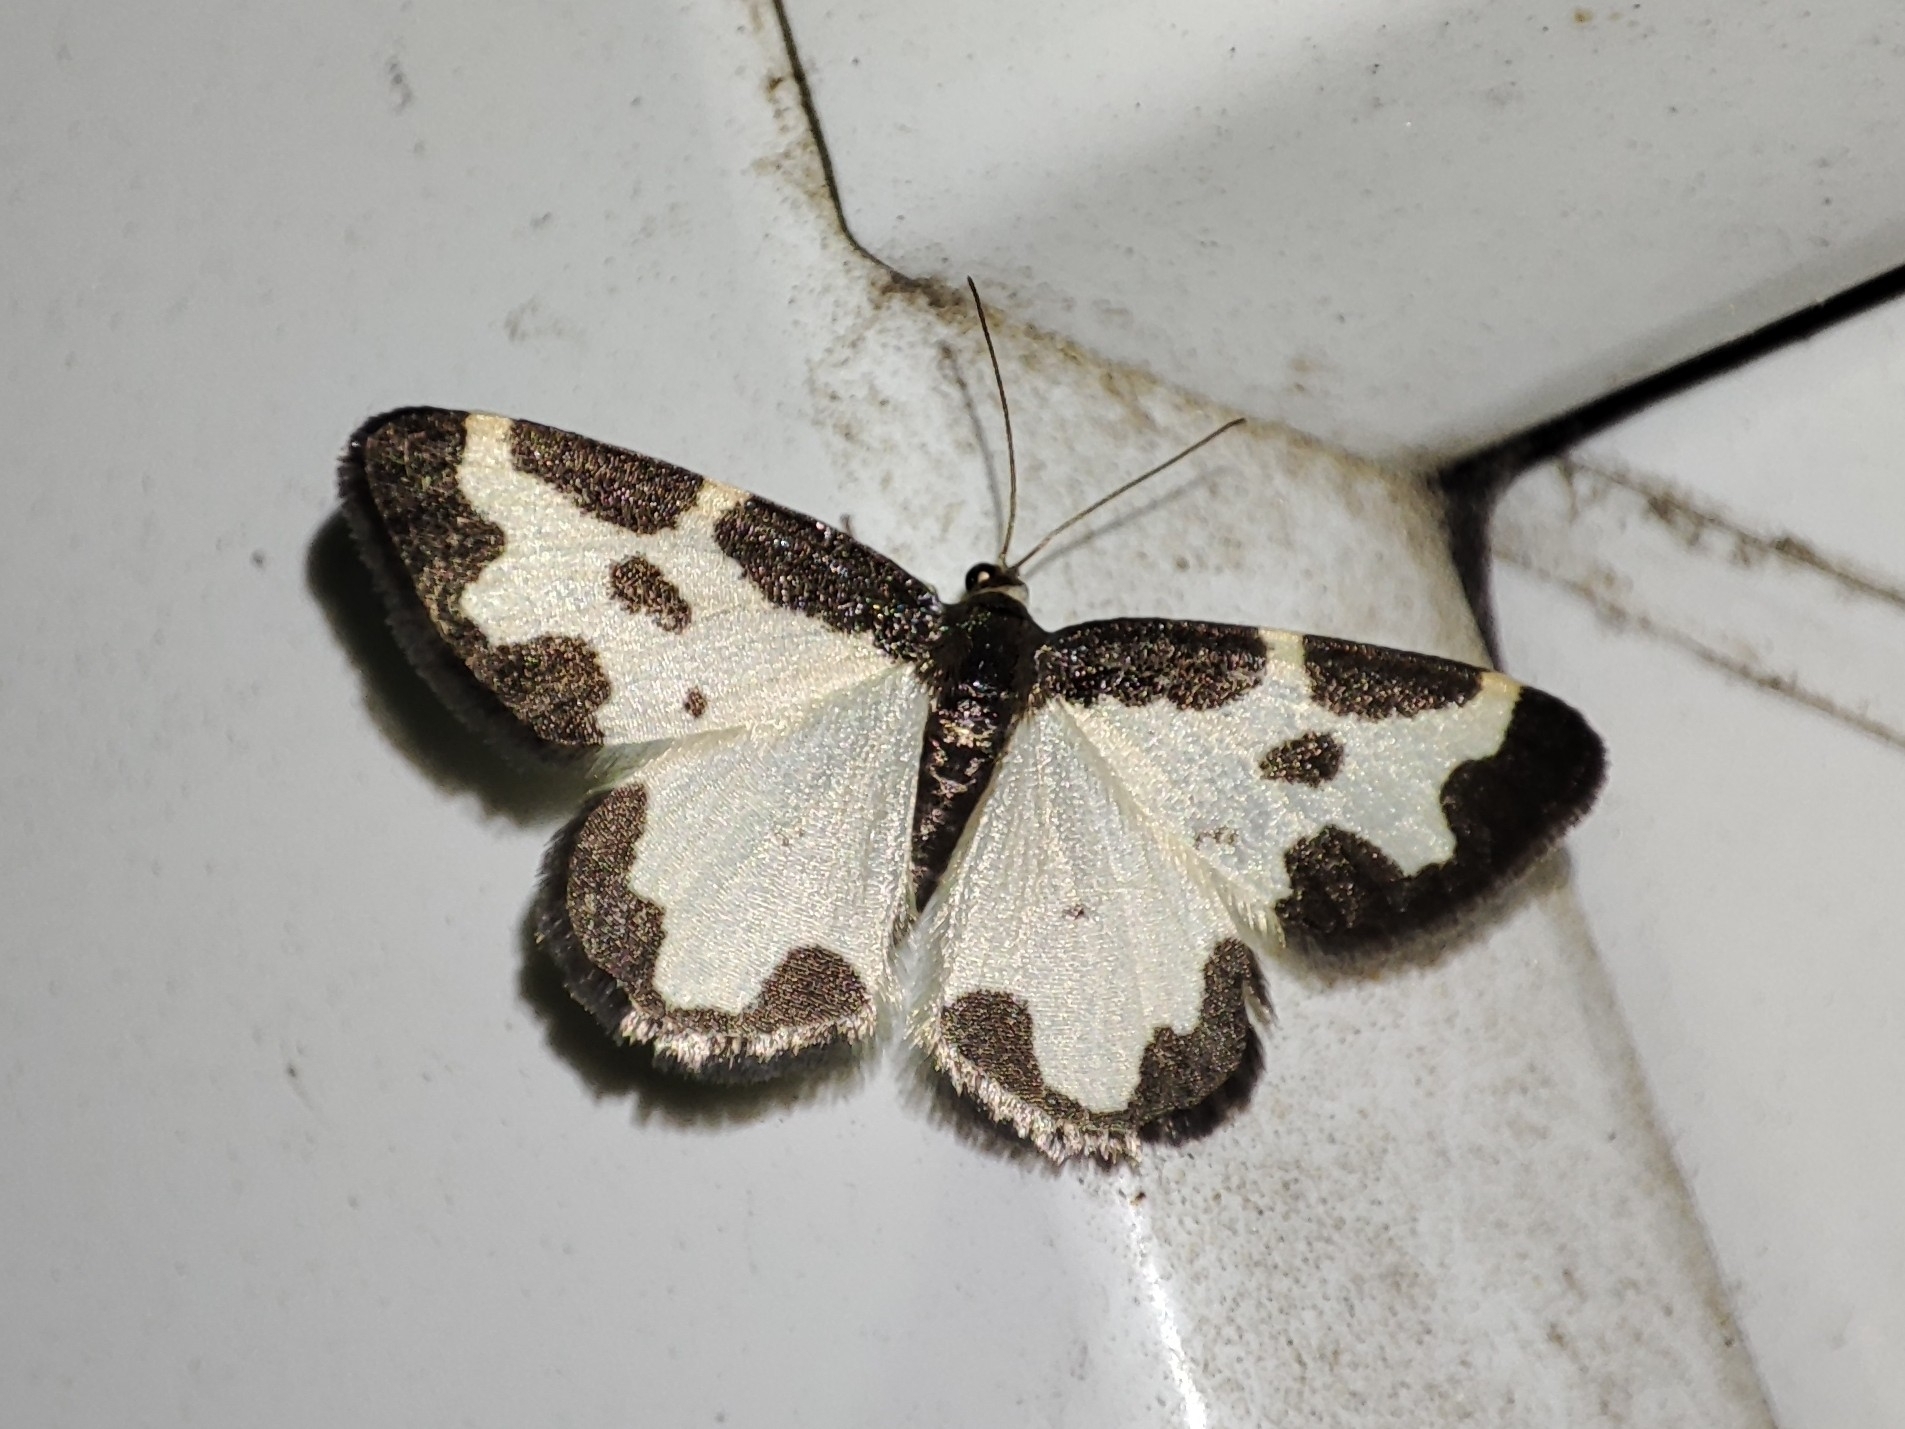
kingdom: Animalia
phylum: Arthropoda
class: Insecta
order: Lepidoptera
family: Geometridae
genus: Lomaspilis
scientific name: Lomaspilis marginata
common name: Clouded border
